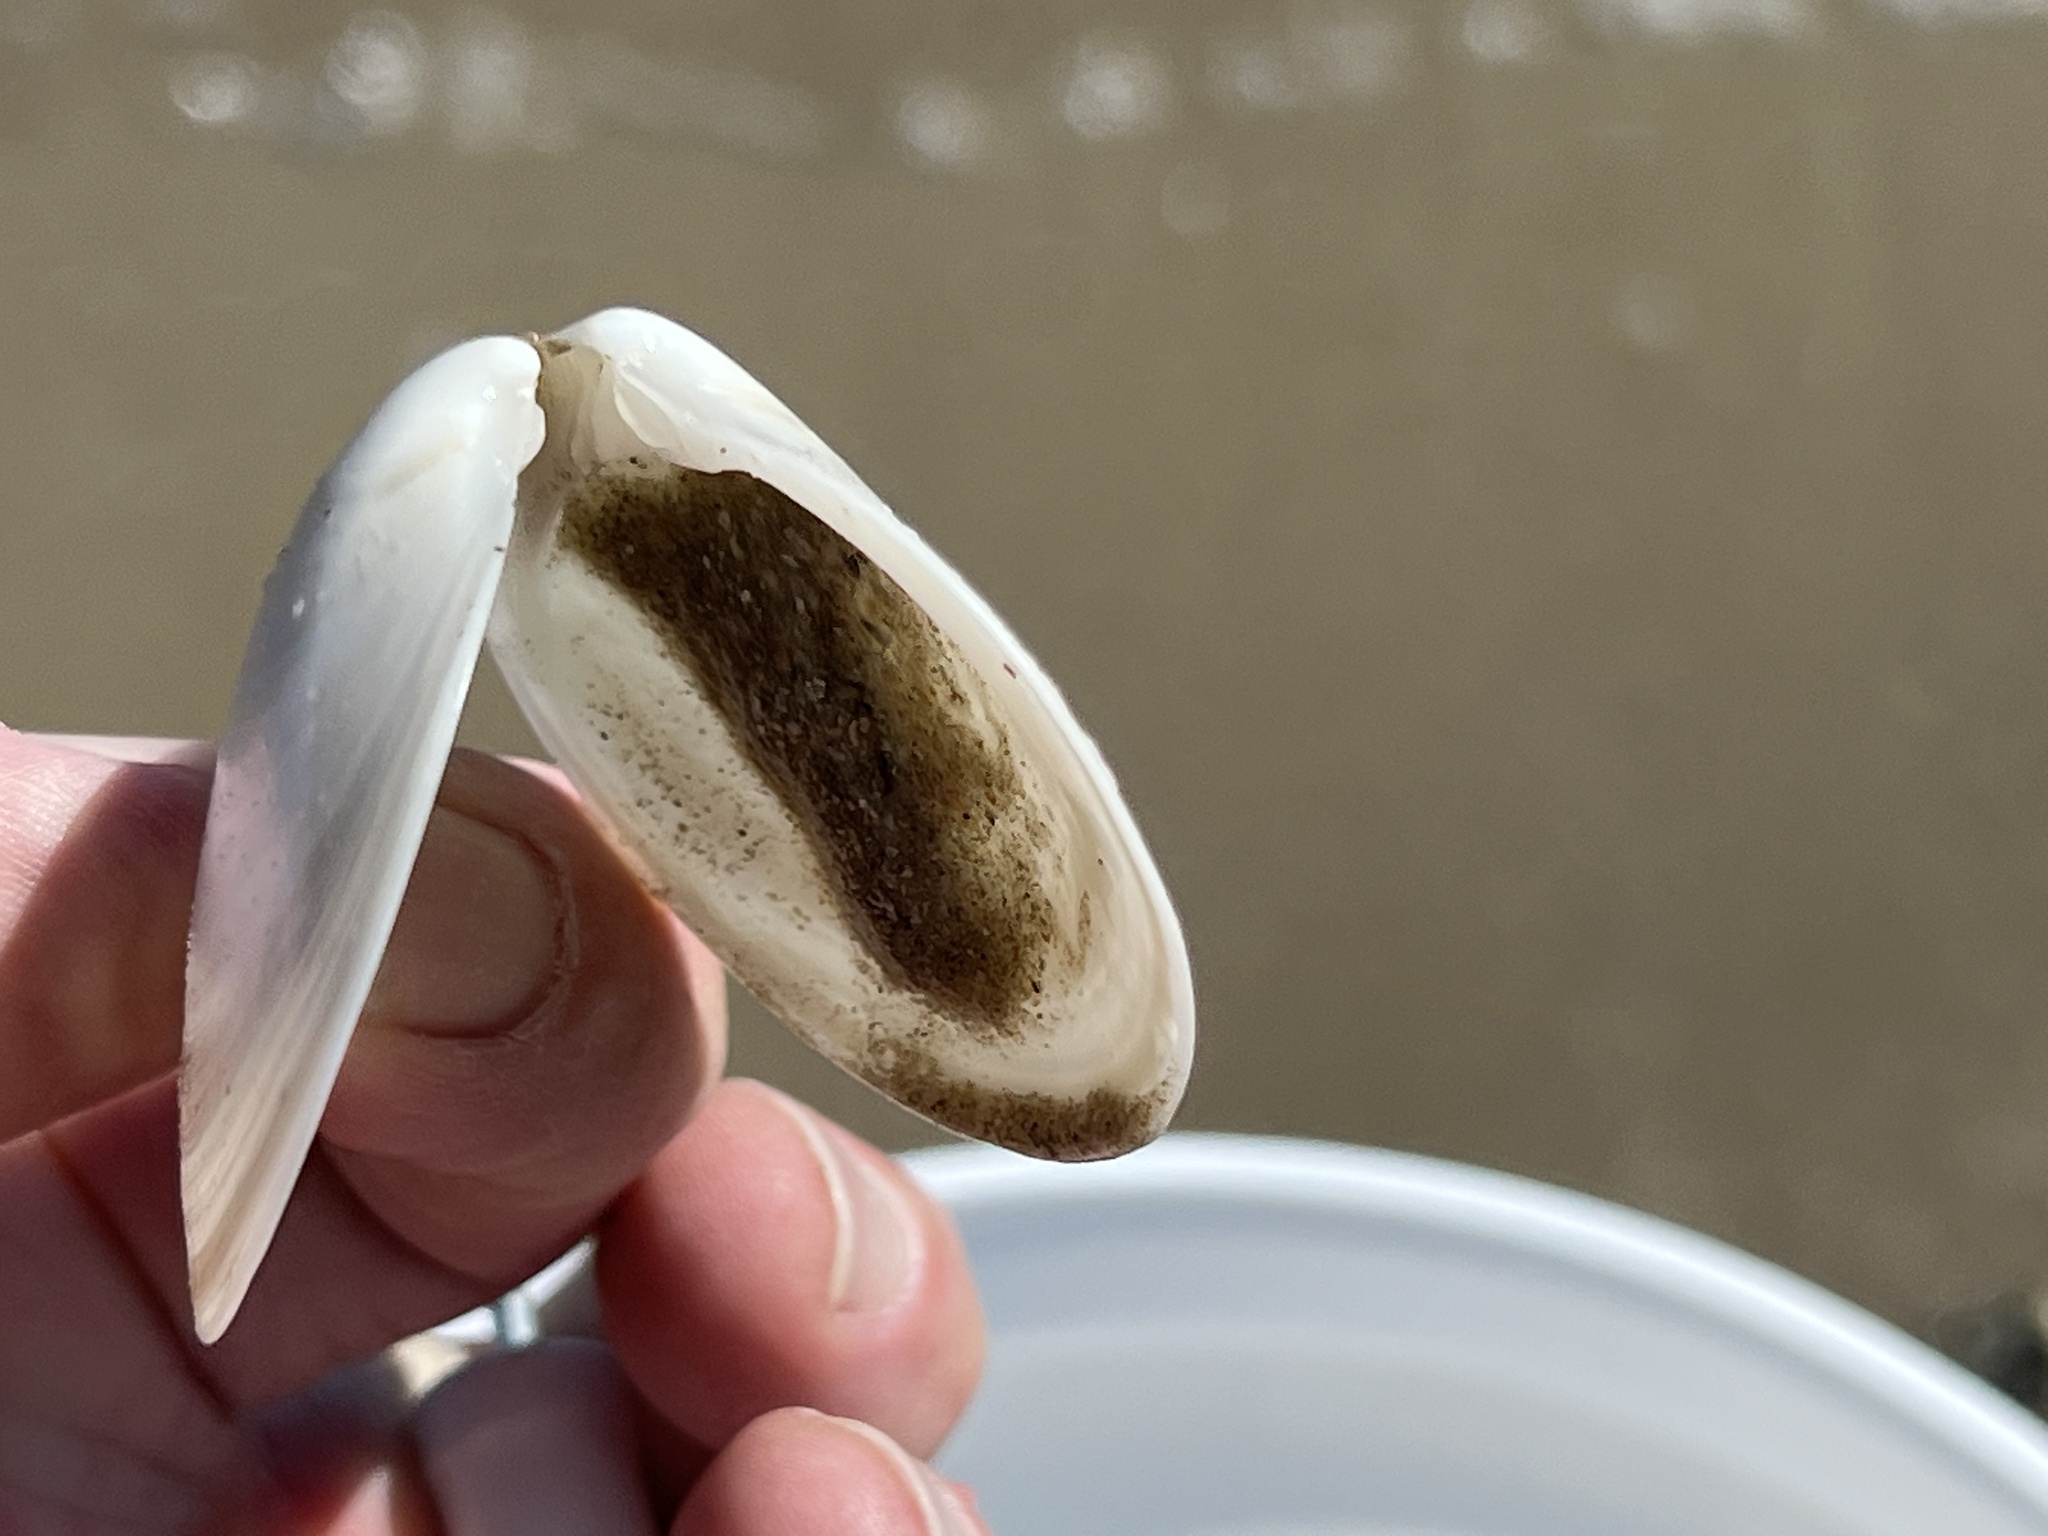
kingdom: Animalia
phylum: Mollusca
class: Bivalvia
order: Venerida
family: Veneridae
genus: Dosinia
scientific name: Dosinia discus
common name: Disk dosinia
